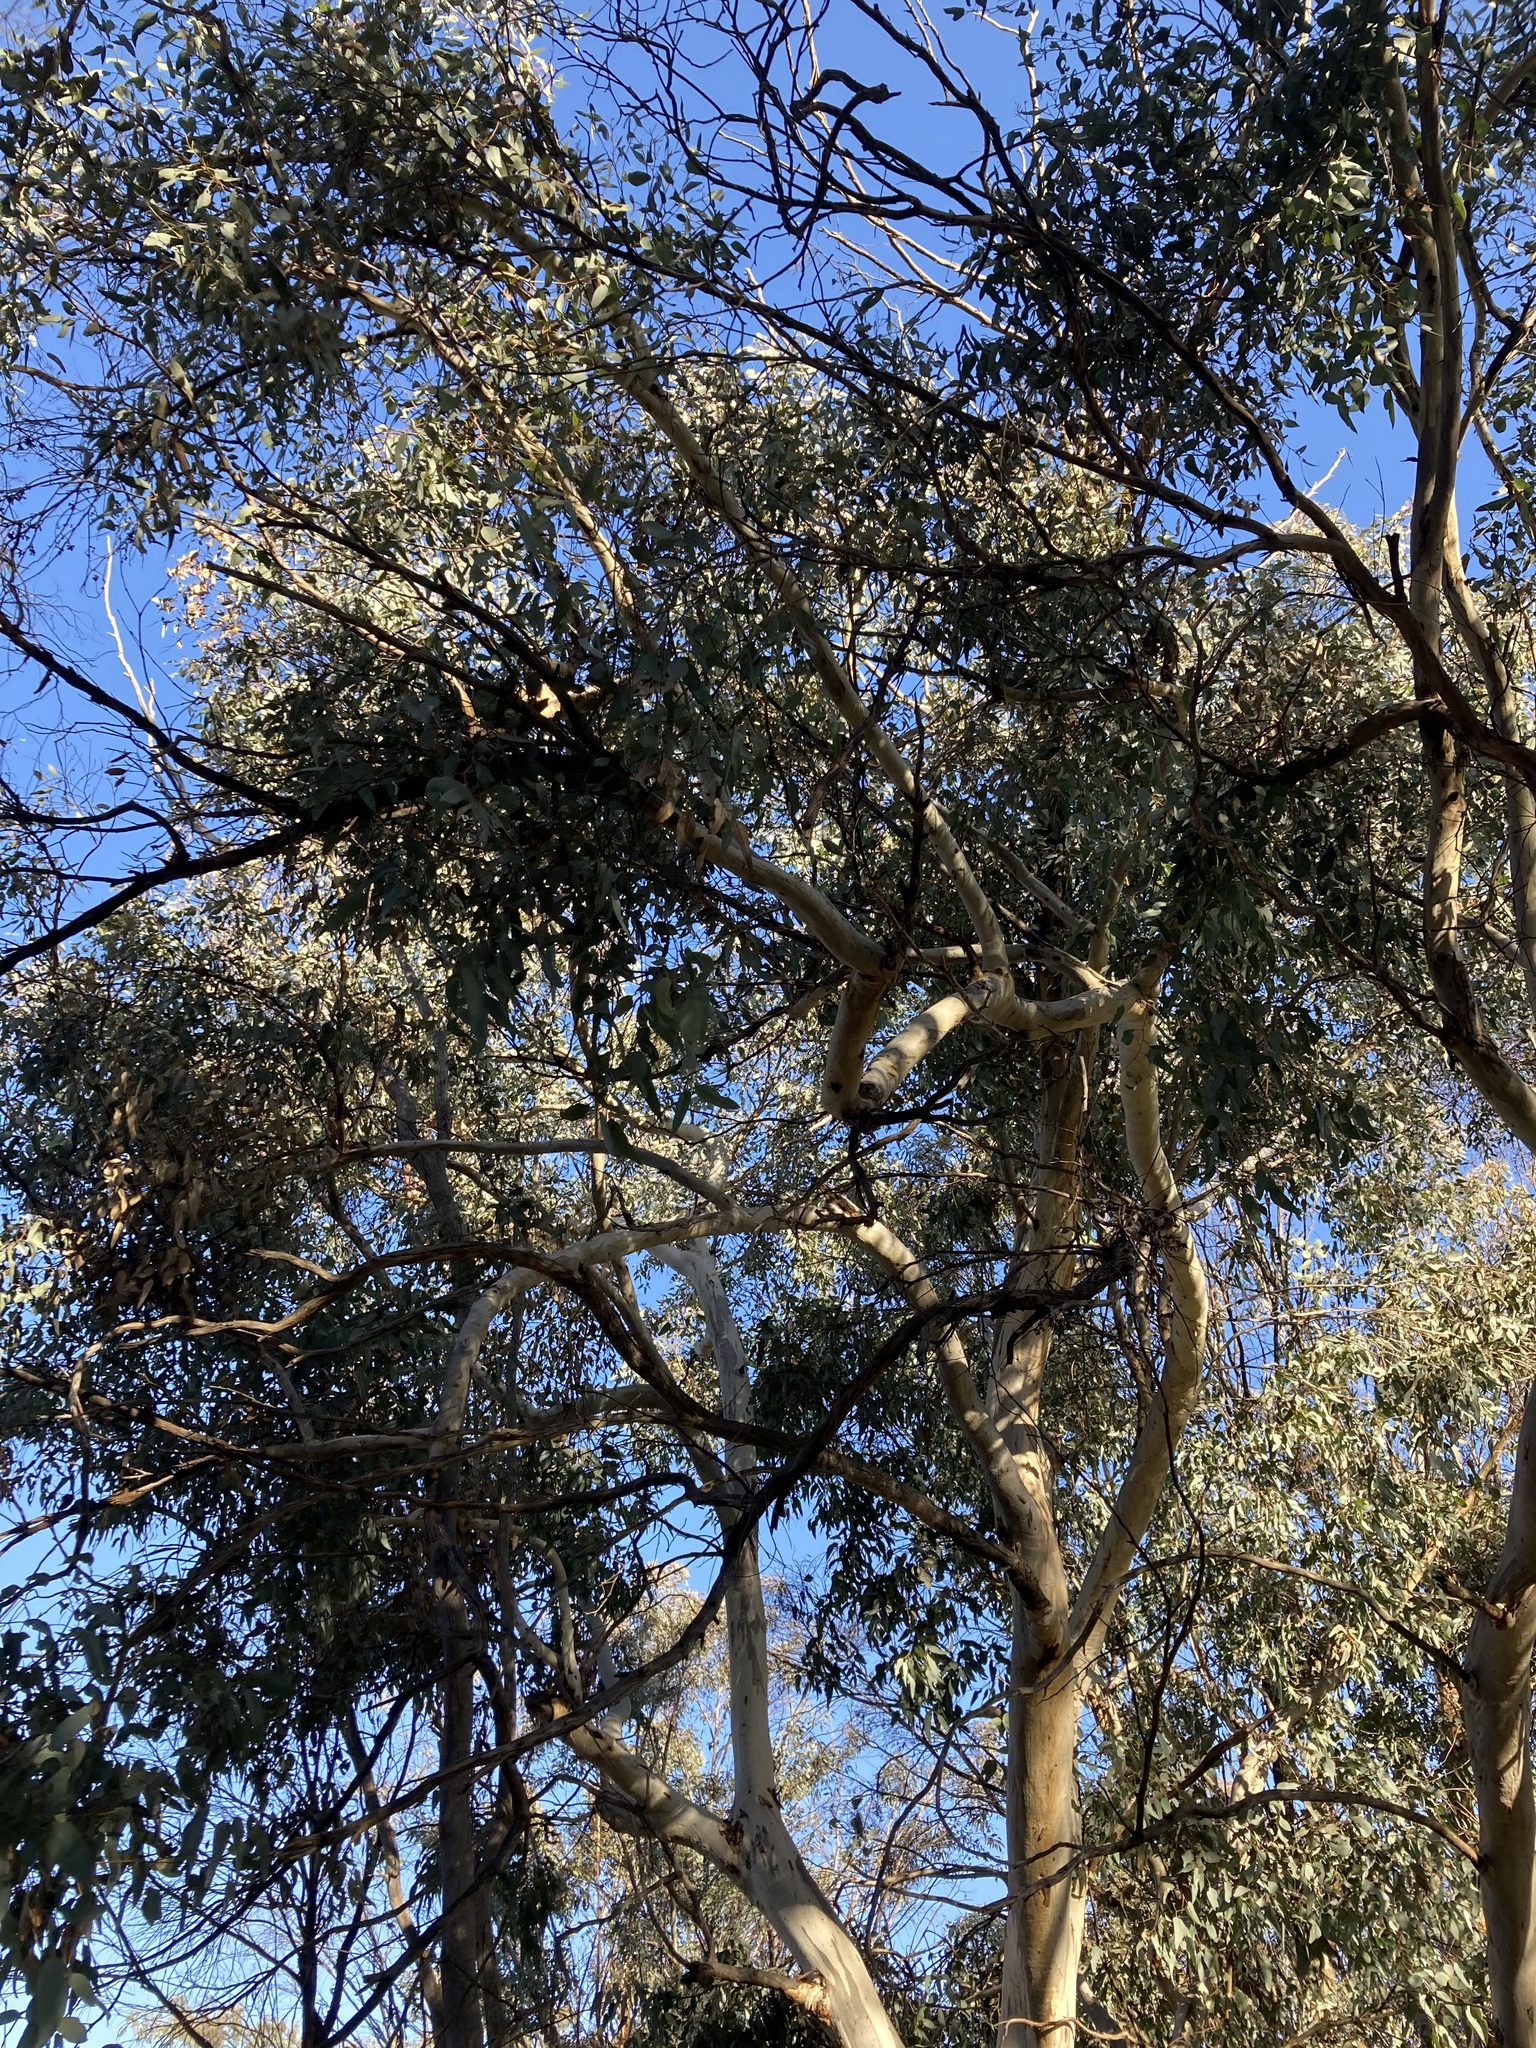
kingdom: Plantae
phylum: Tracheophyta
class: Magnoliopsida
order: Myrtales
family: Myrtaceae
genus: Eucalyptus
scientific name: Eucalyptus wandoo
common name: White gum
